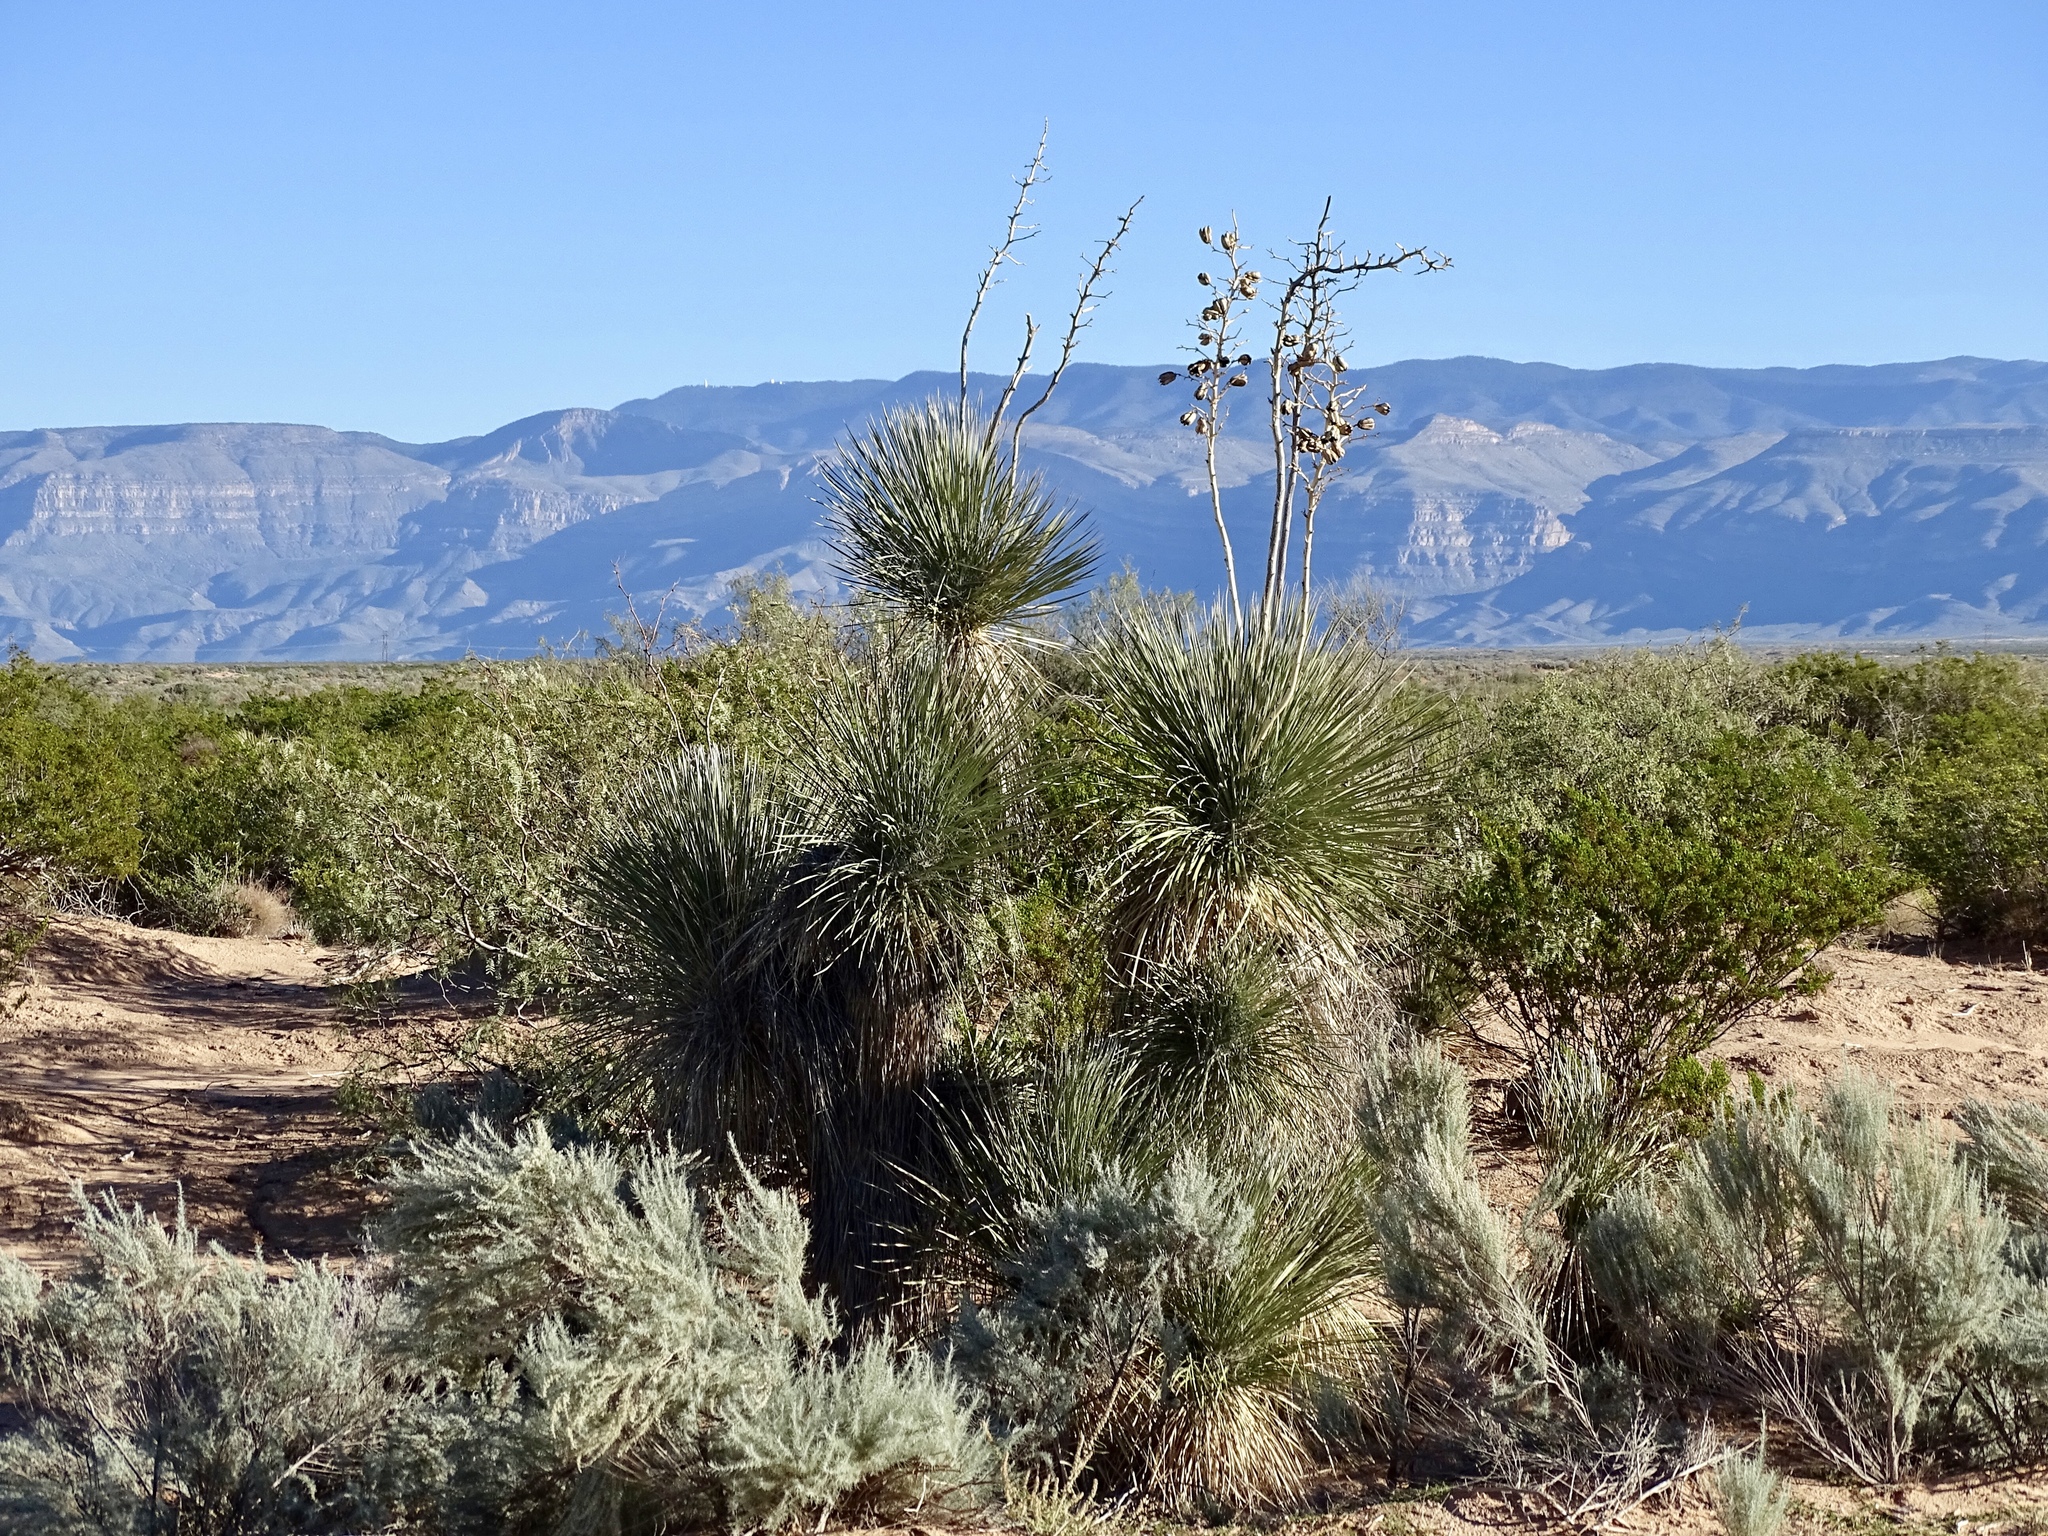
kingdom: Plantae
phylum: Tracheophyta
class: Liliopsida
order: Asparagales
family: Asparagaceae
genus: Yucca
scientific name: Yucca elata
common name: Palmella
